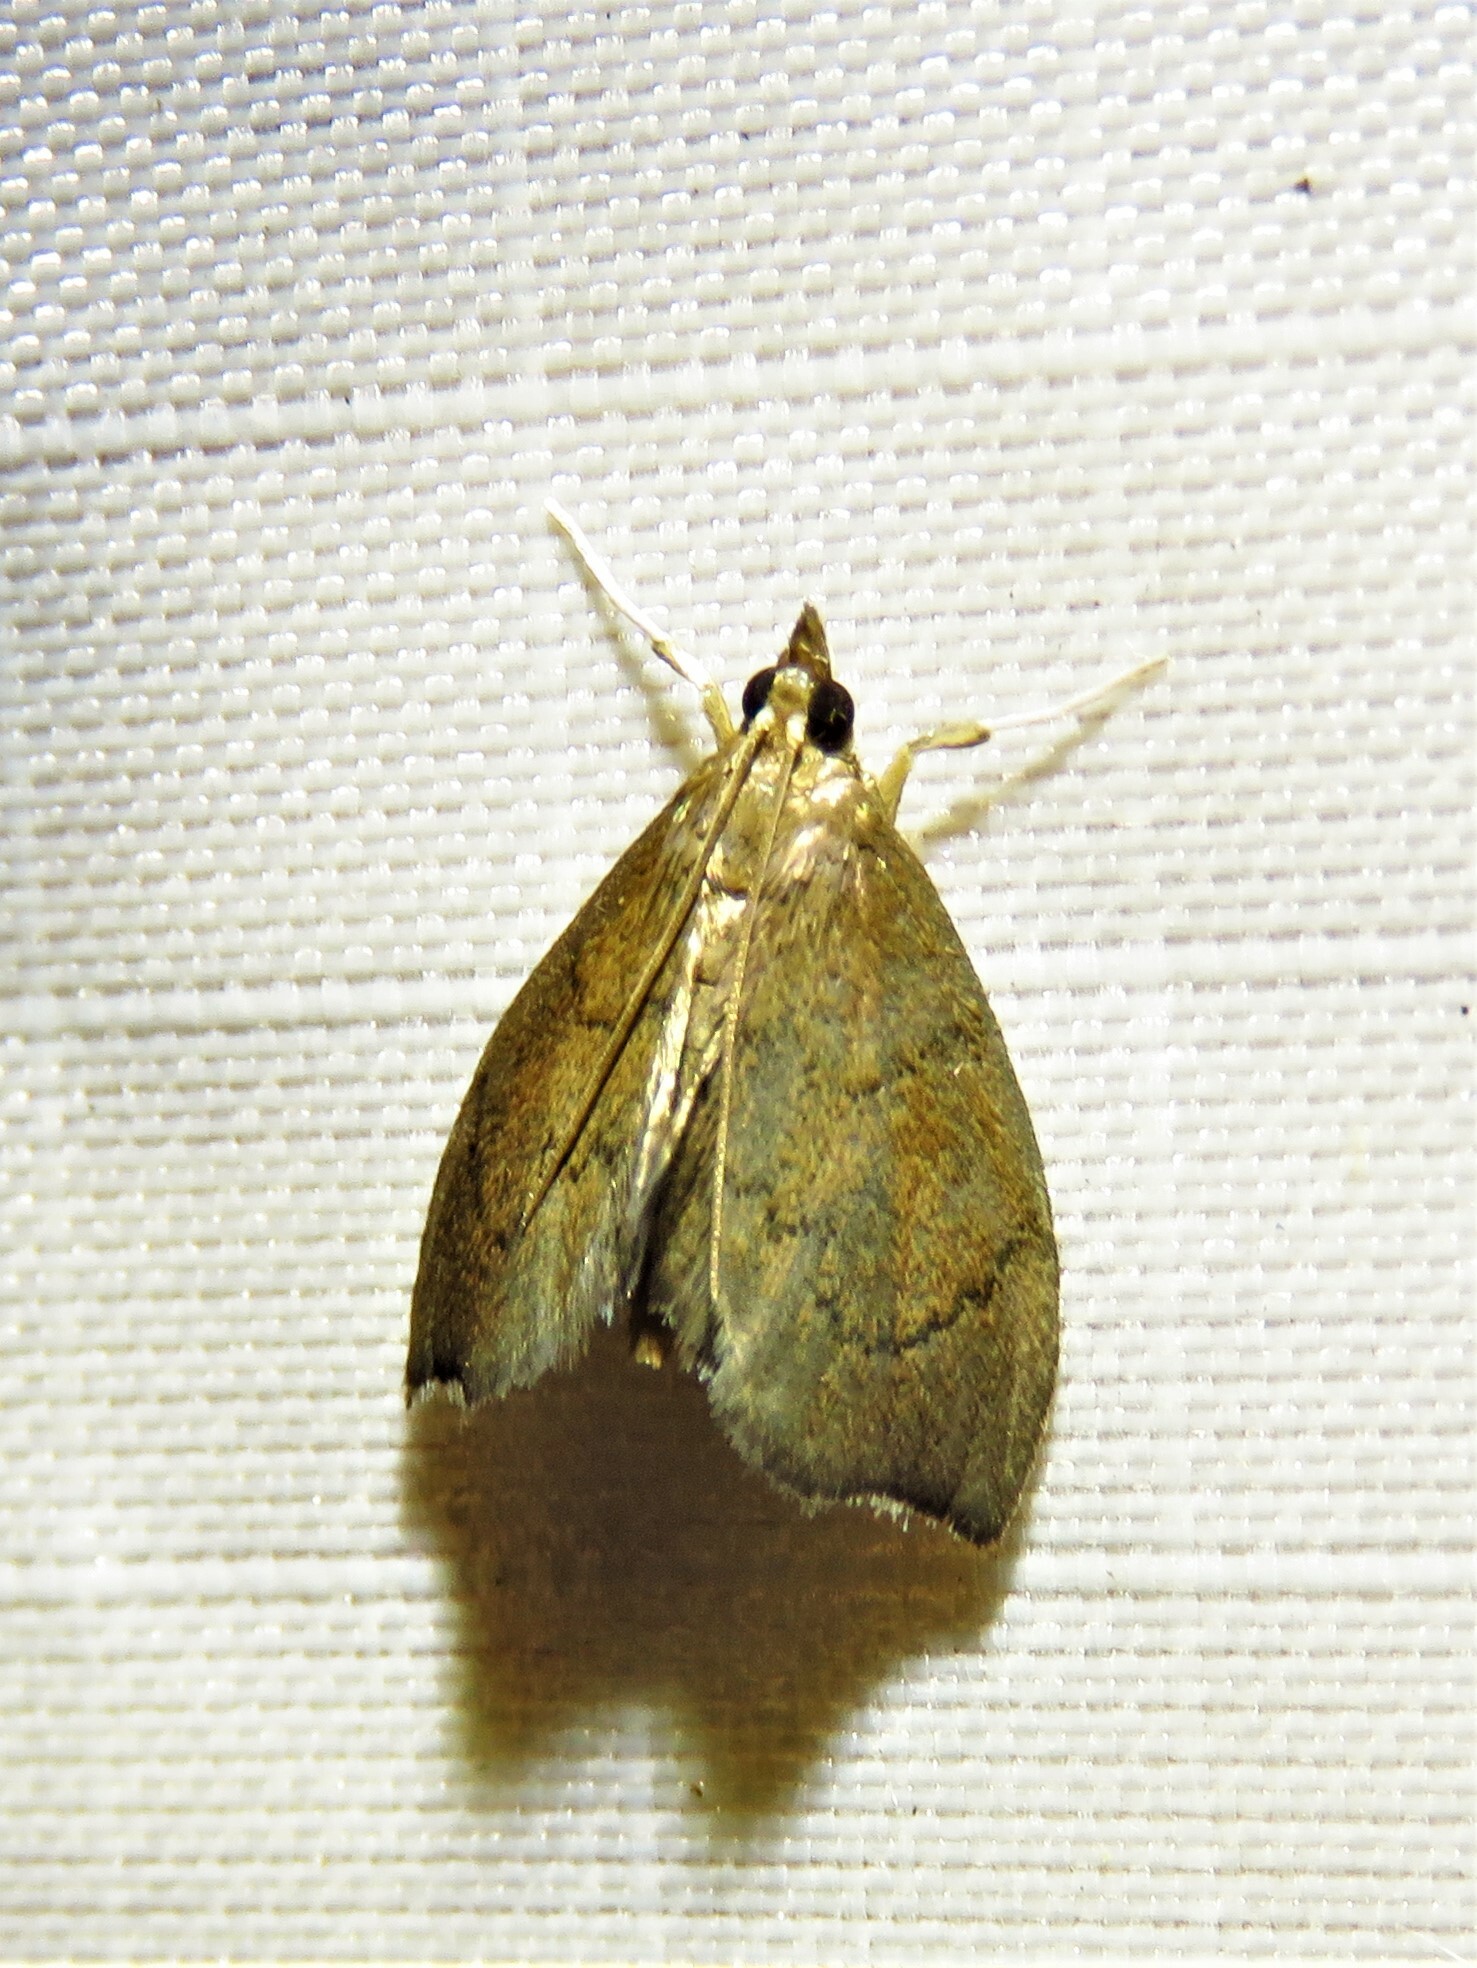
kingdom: Animalia
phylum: Arthropoda
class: Insecta
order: Lepidoptera
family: Crambidae
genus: Perispasta
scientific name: Perispasta caeculalis
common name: Titian peale's moth
